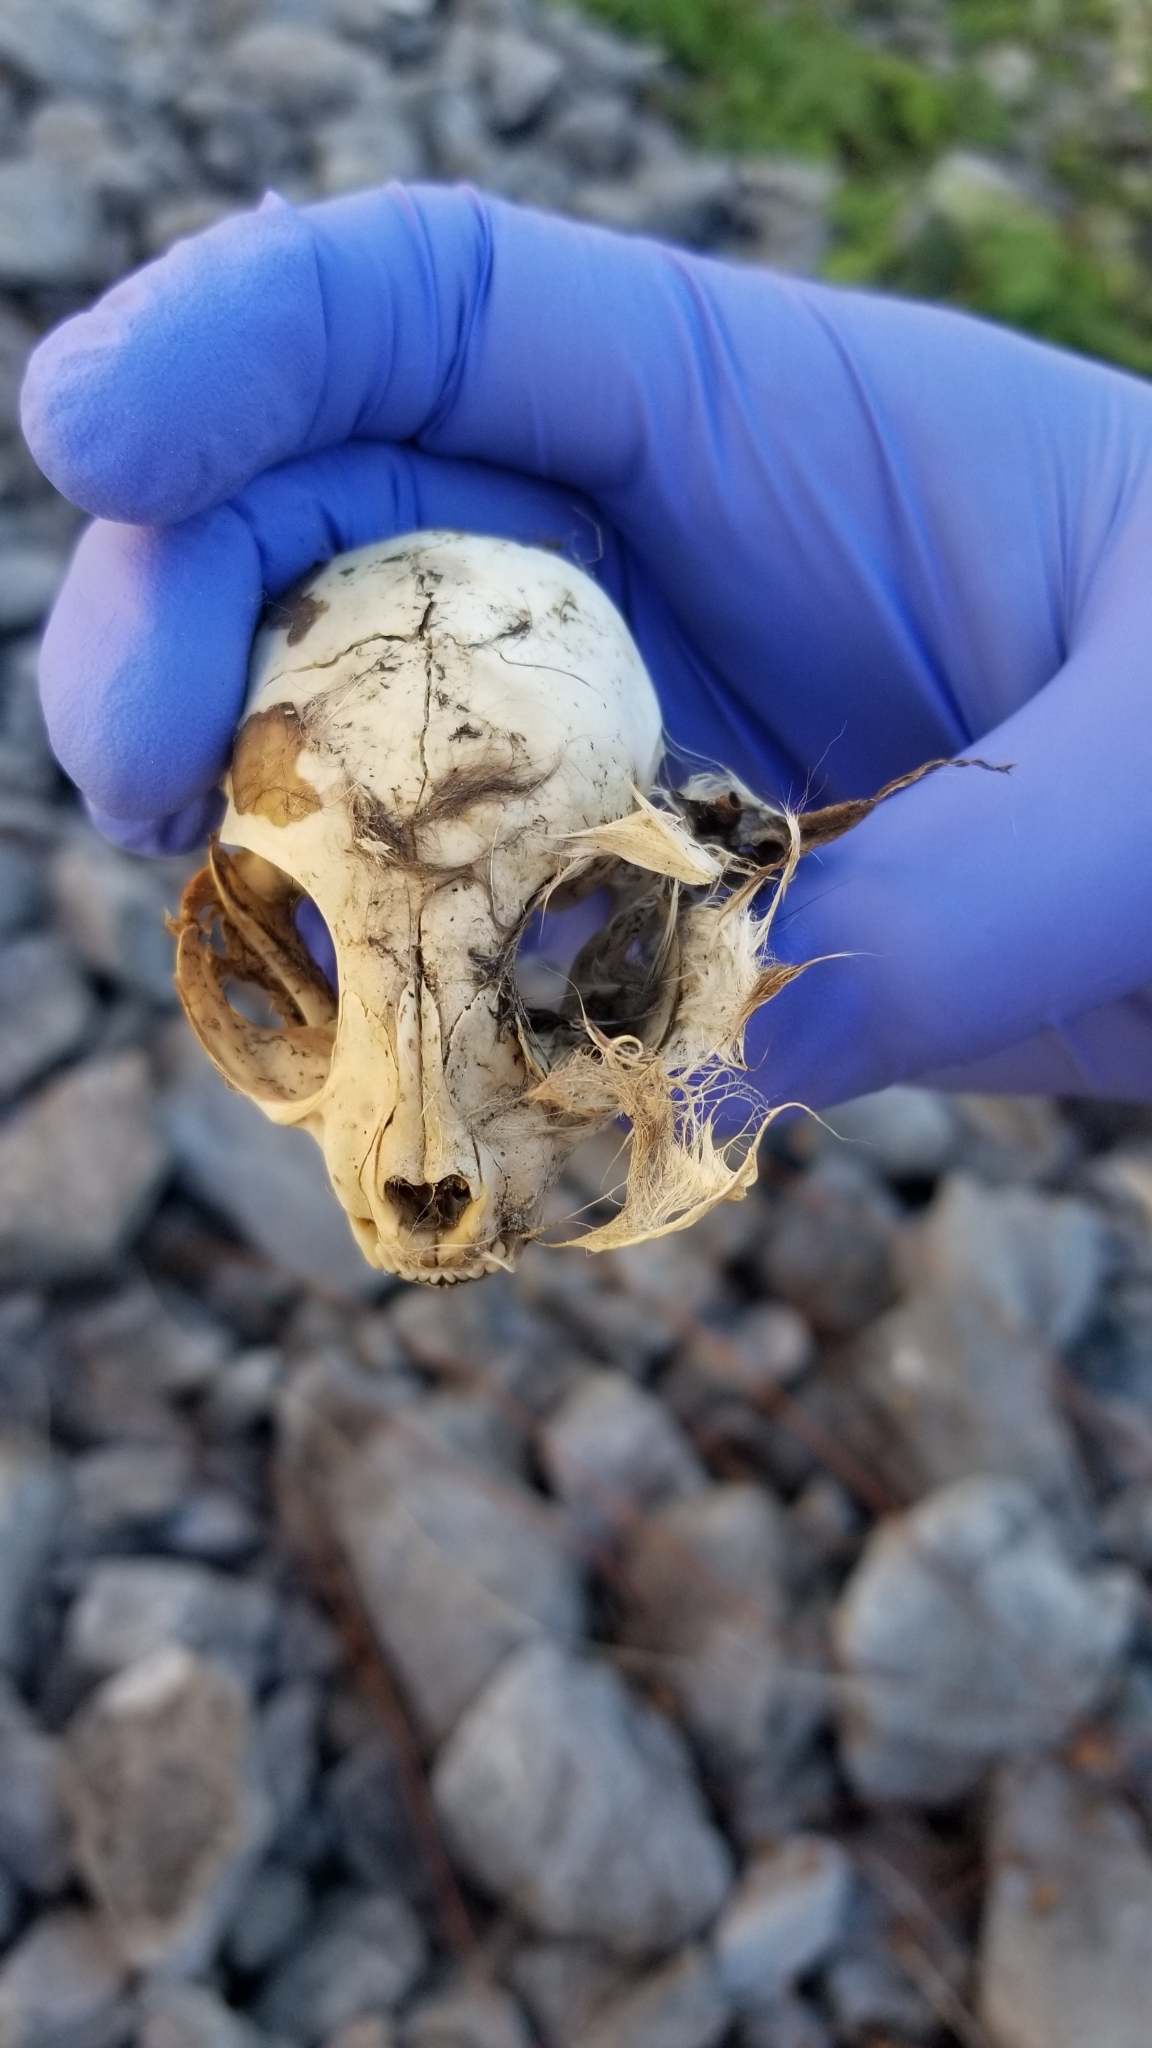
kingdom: Animalia
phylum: Chordata
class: Mammalia
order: Carnivora
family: Felidae
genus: Felis
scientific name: Felis catus
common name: Domestic cat
